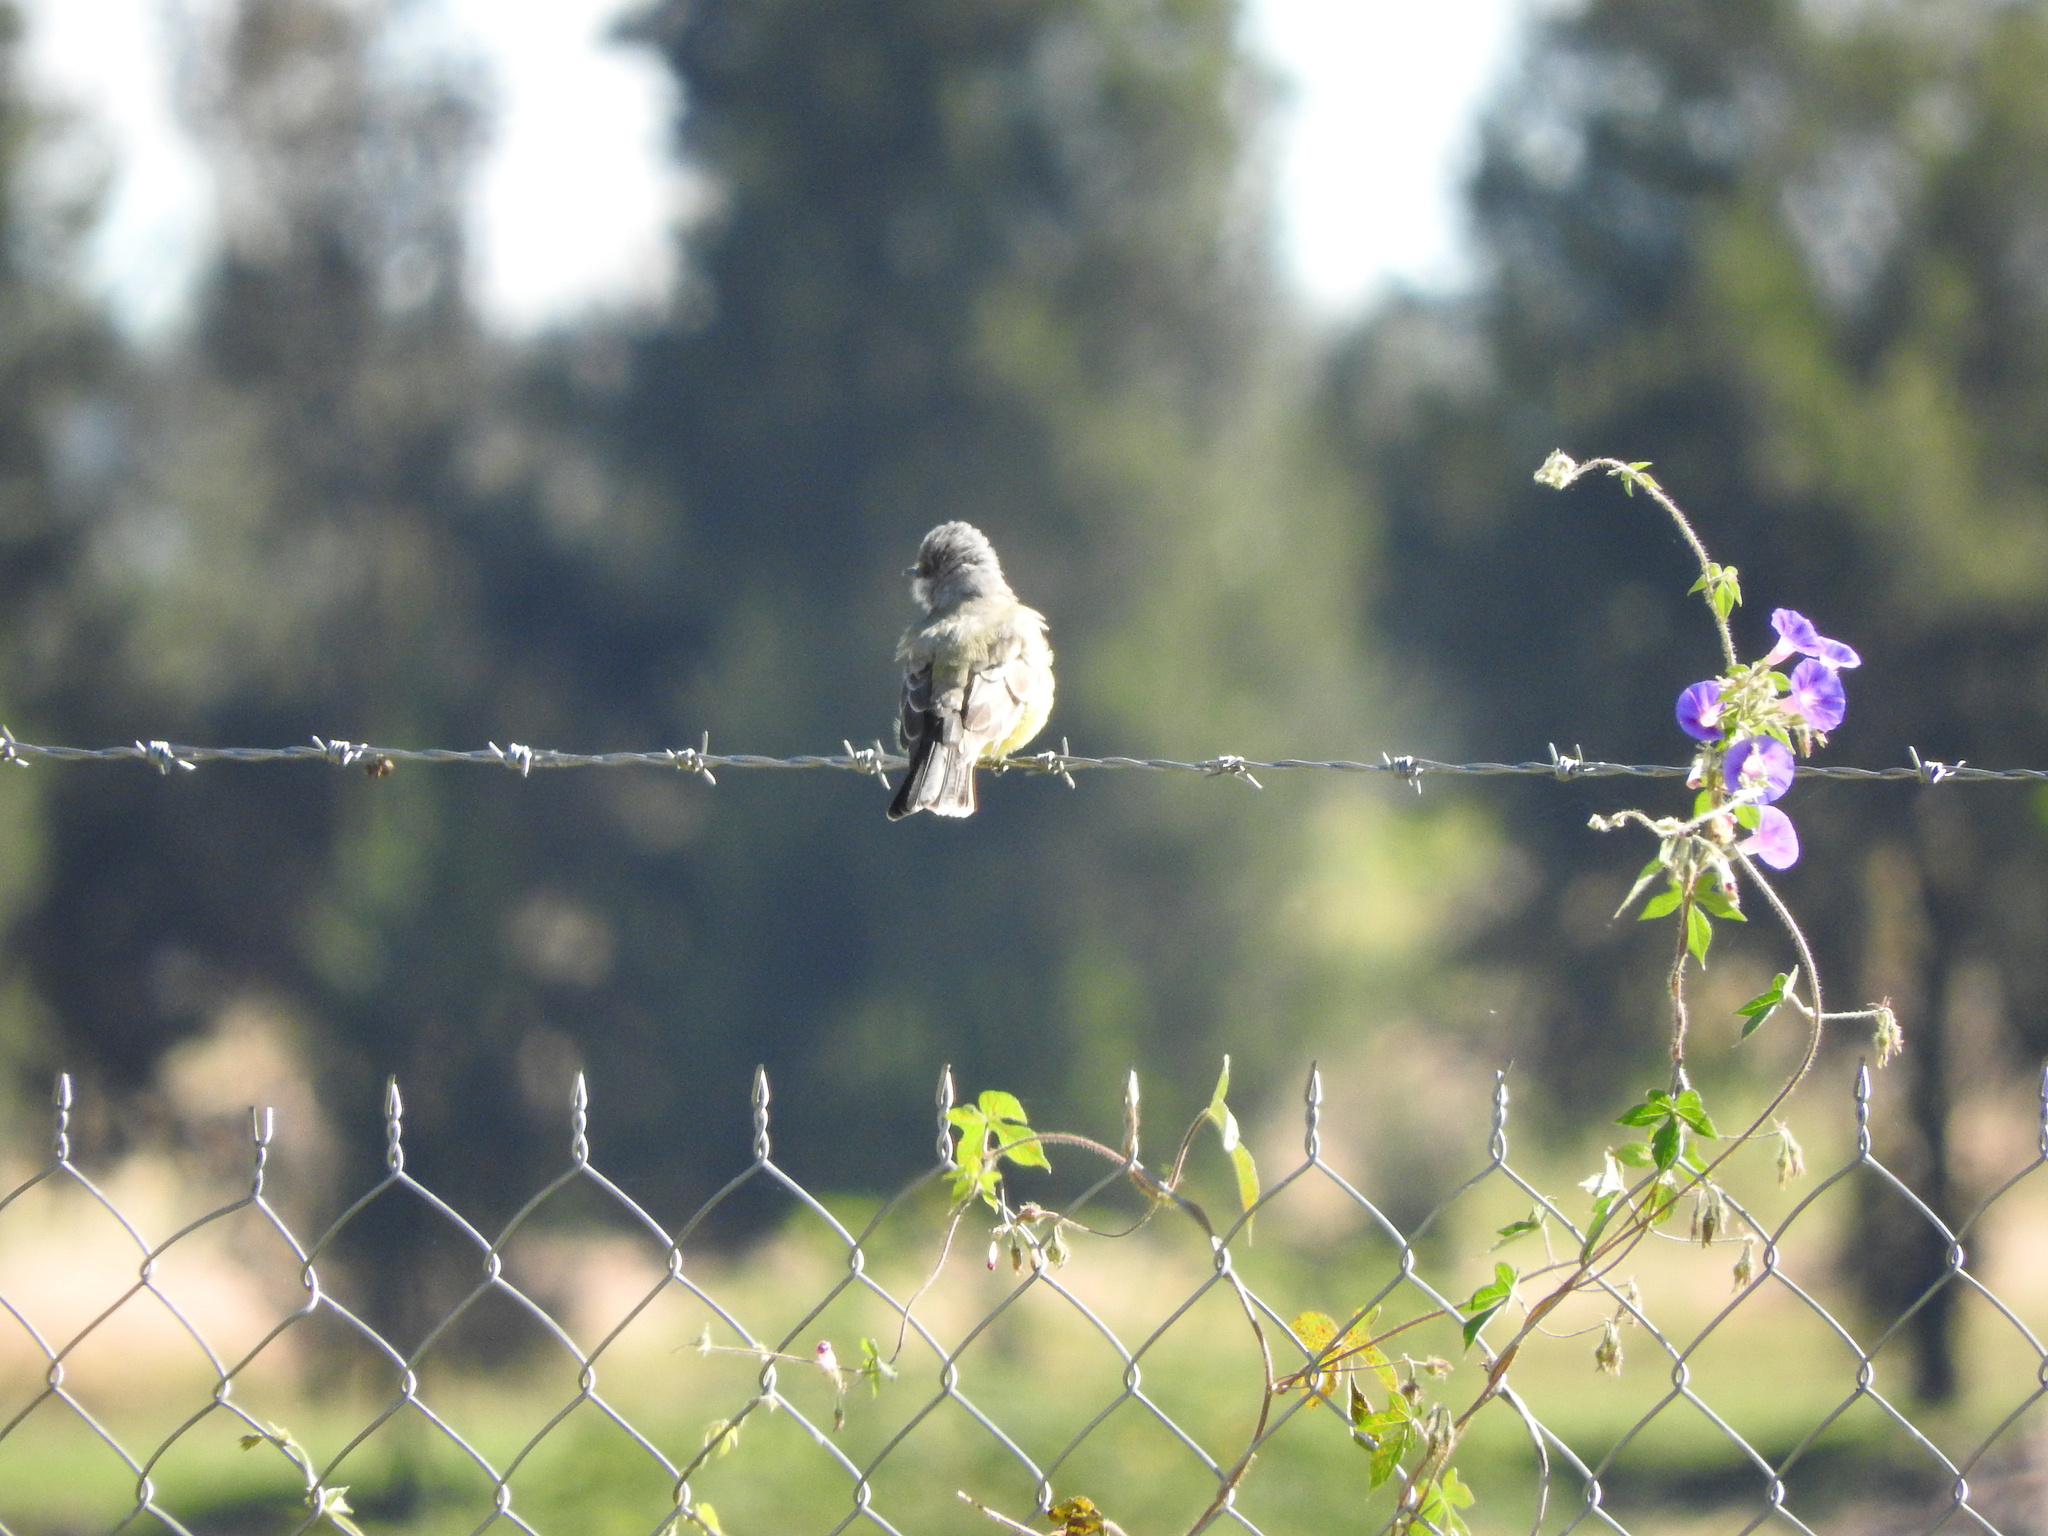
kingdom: Animalia
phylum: Chordata
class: Aves
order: Passeriformes
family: Tyrannidae
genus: Tyrannus
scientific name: Tyrannus vociferans
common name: Cassin's kingbird
